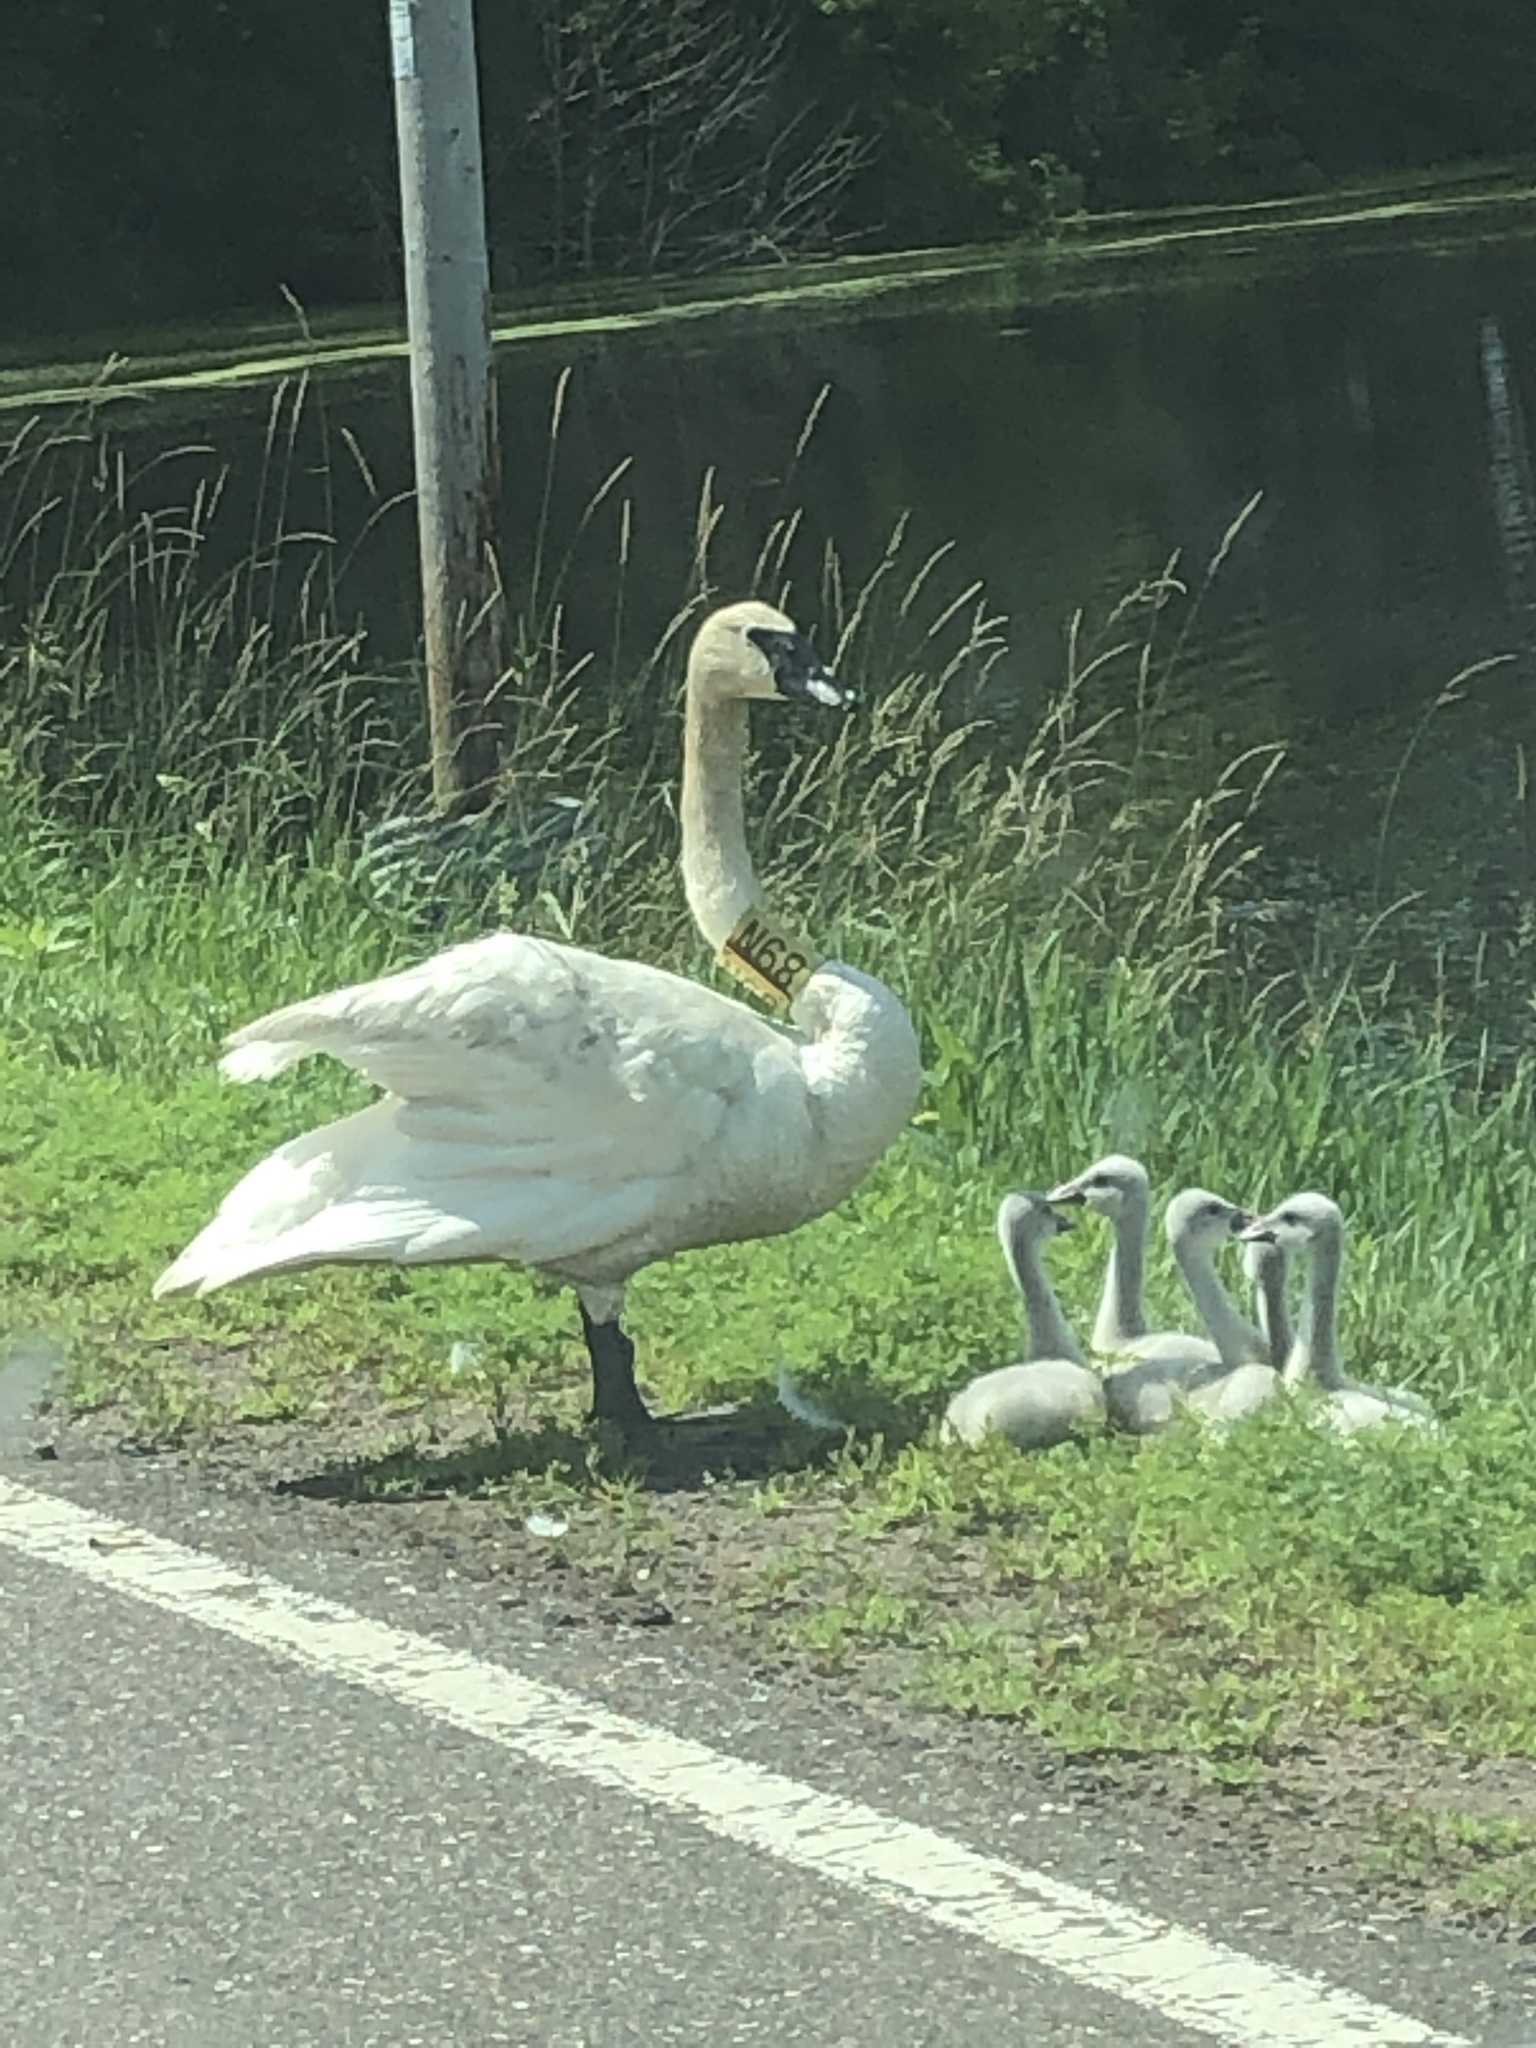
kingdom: Animalia
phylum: Chordata
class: Aves
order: Anseriformes
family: Anatidae
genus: Cygnus
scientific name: Cygnus buccinator
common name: Trumpeter swan
